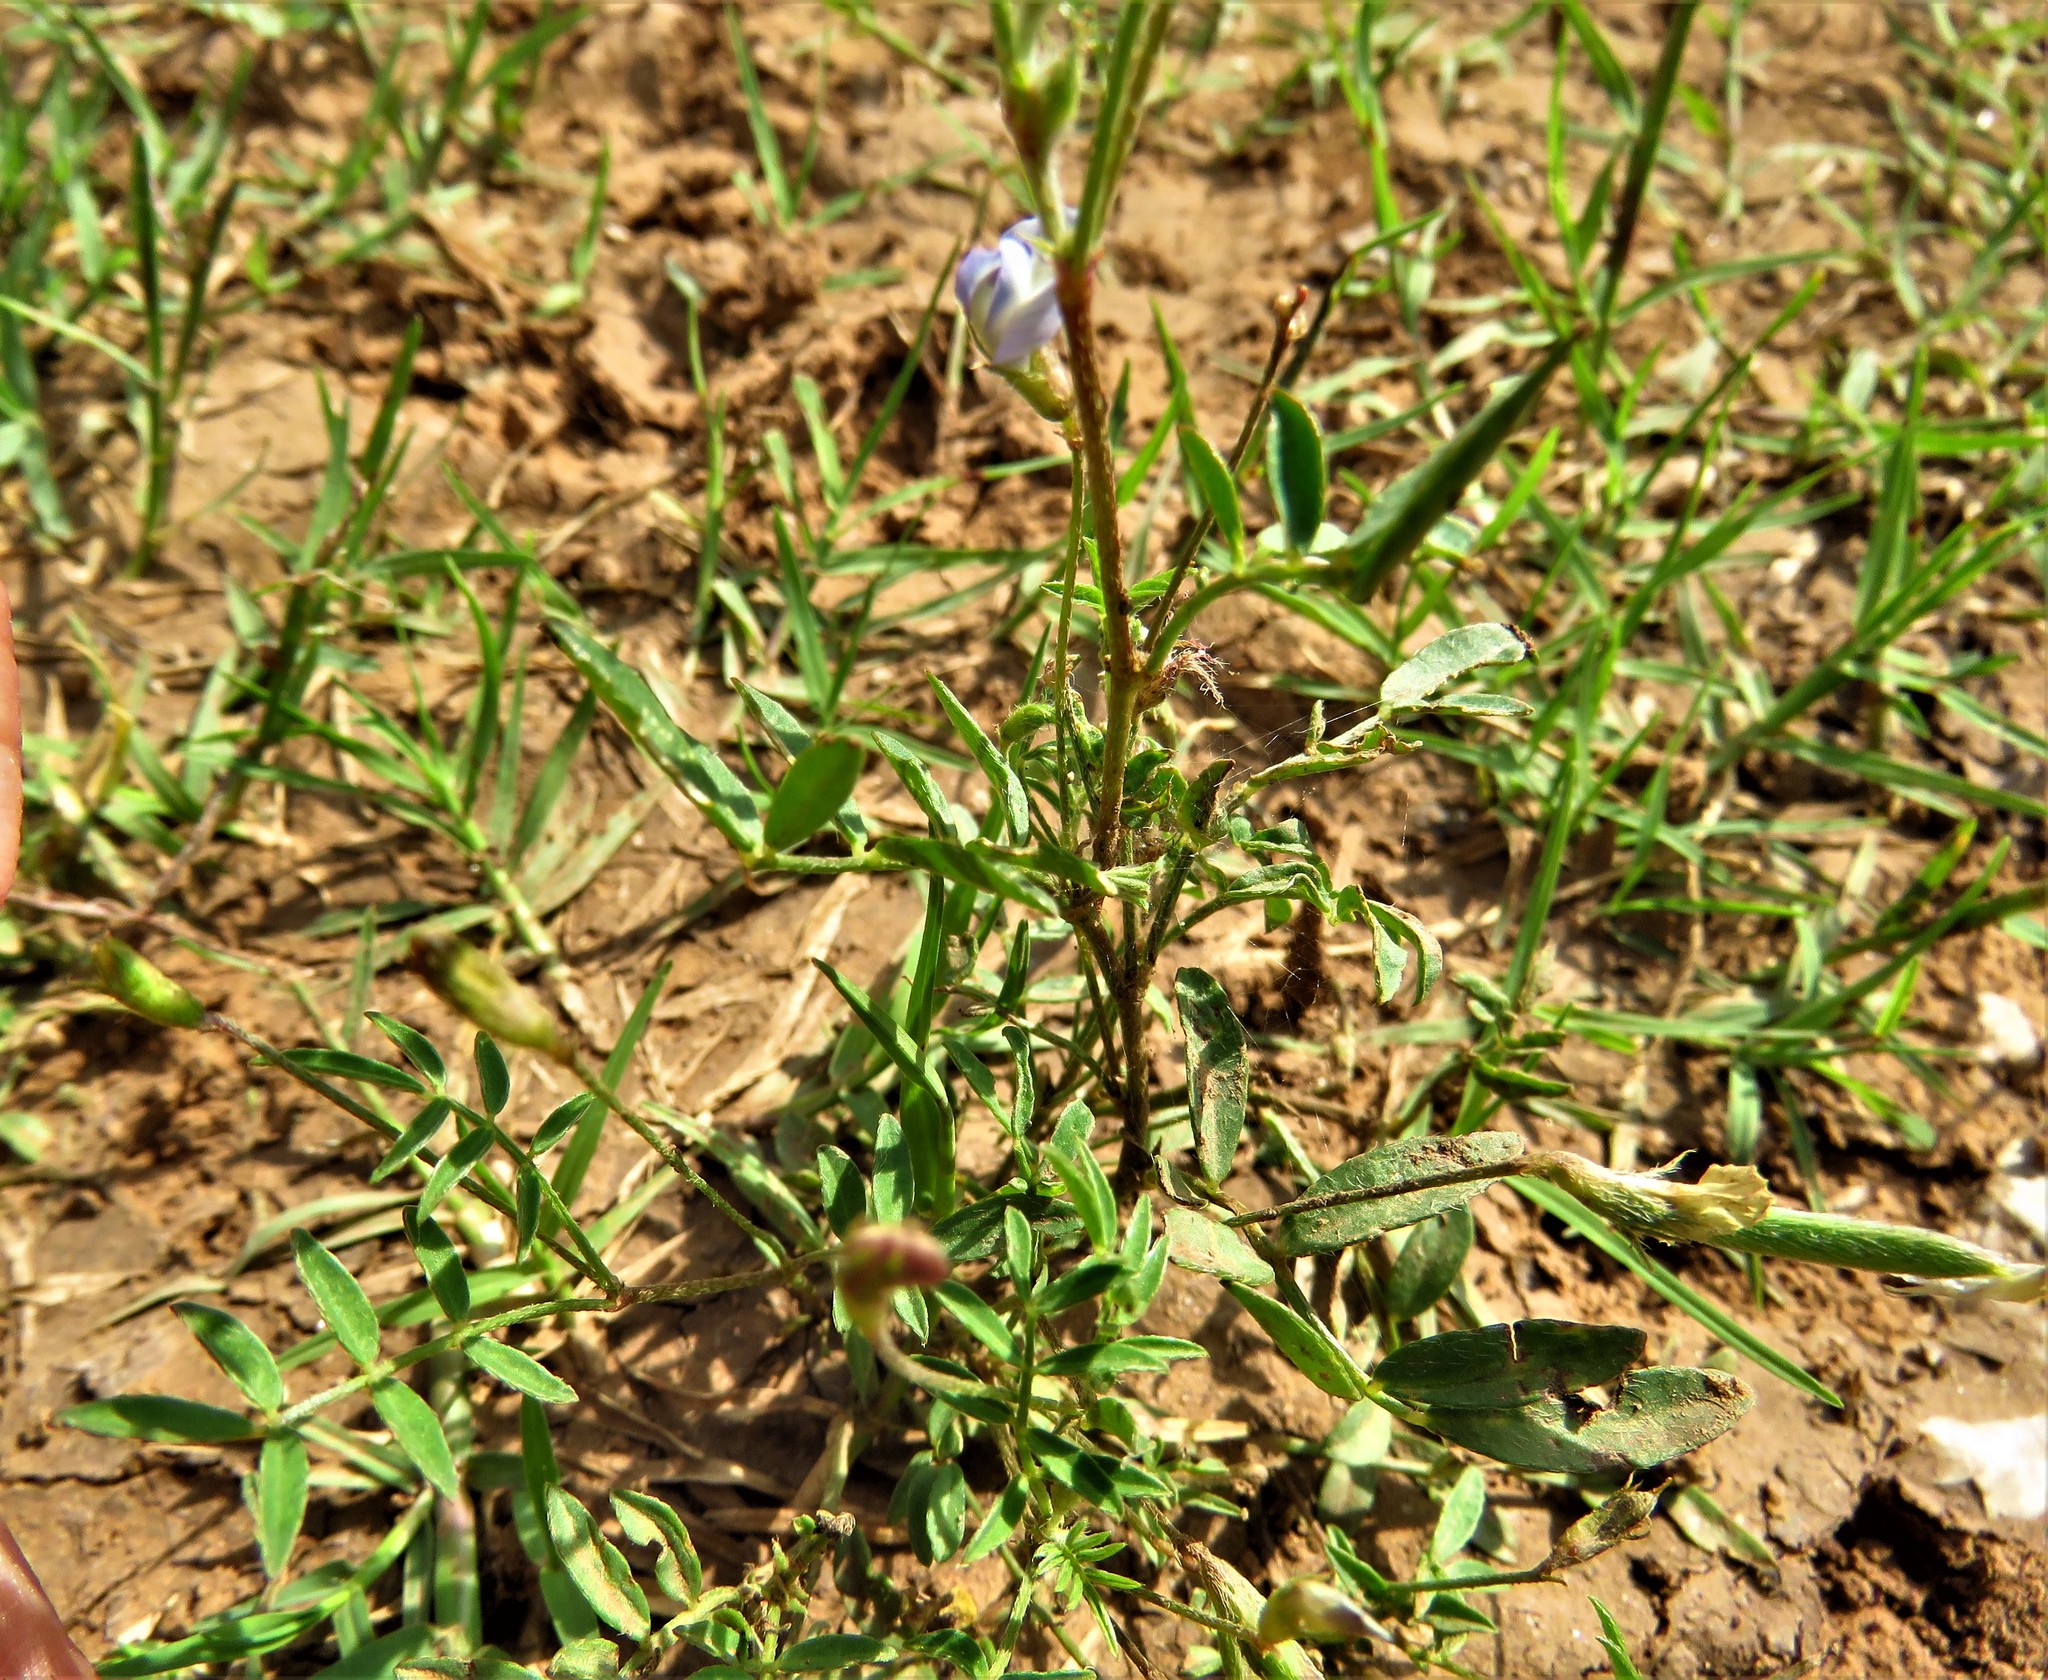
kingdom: Plantae
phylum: Tracheophyta
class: Magnoliopsida
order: Fabales
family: Fabaceae
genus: Astragalus
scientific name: Astragalus nuttallianus
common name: Smallflowered milkvetch
